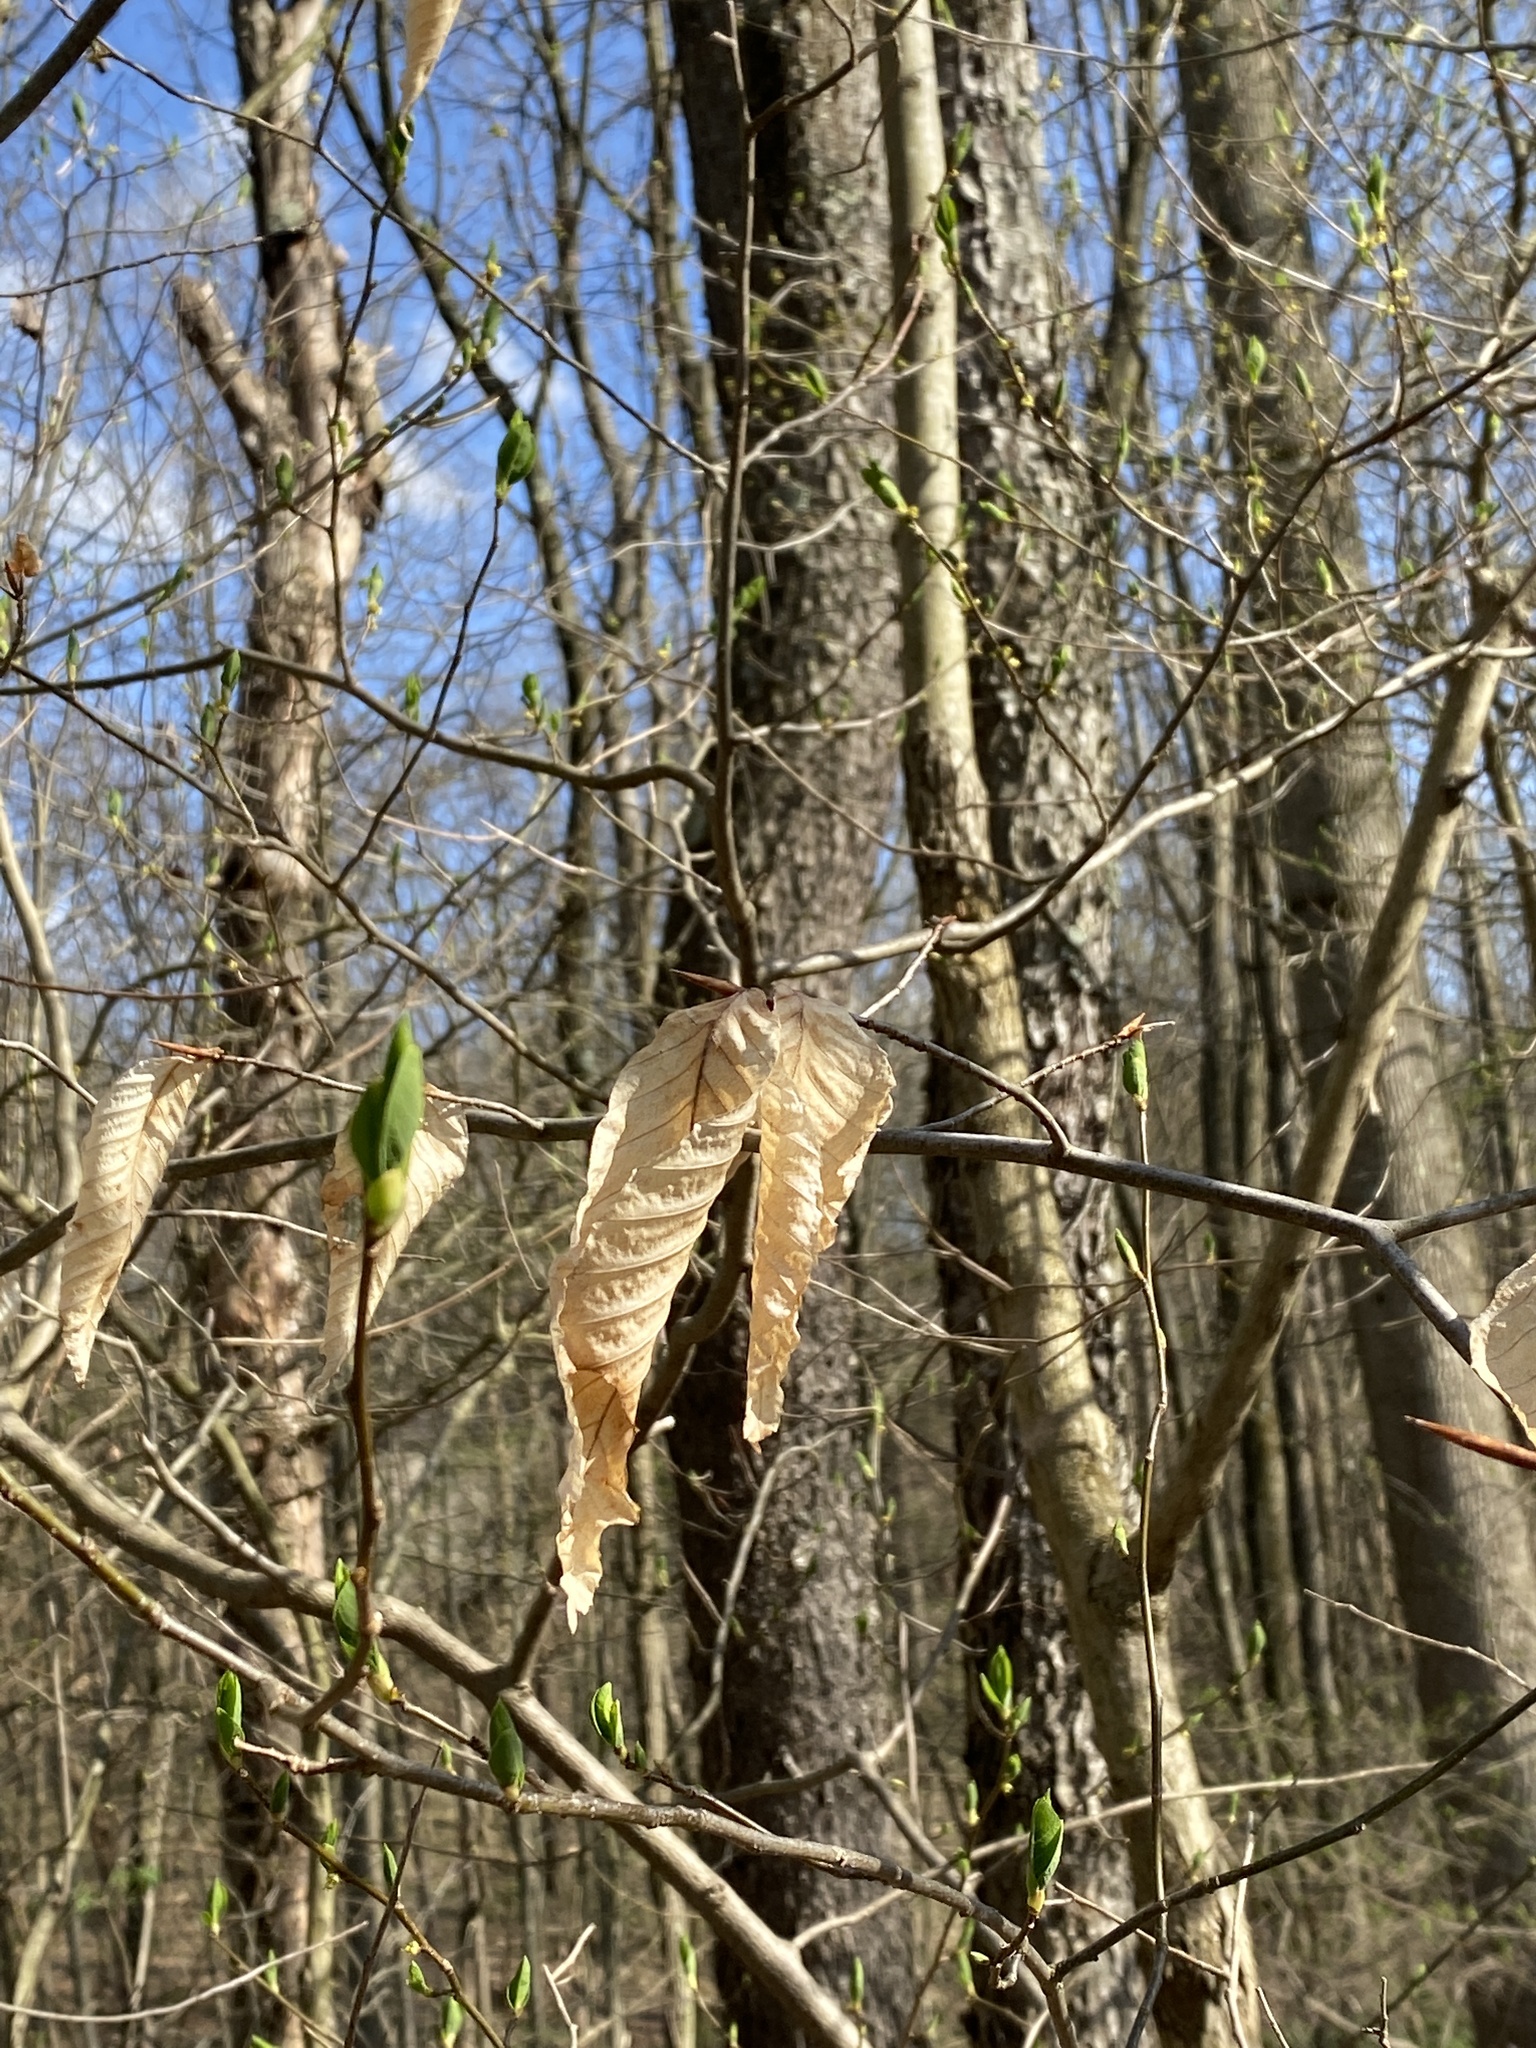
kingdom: Plantae
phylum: Tracheophyta
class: Magnoliopsida
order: Fagales
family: Fagaceae
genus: Fagus
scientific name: Fagus grandifolia
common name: American beech
